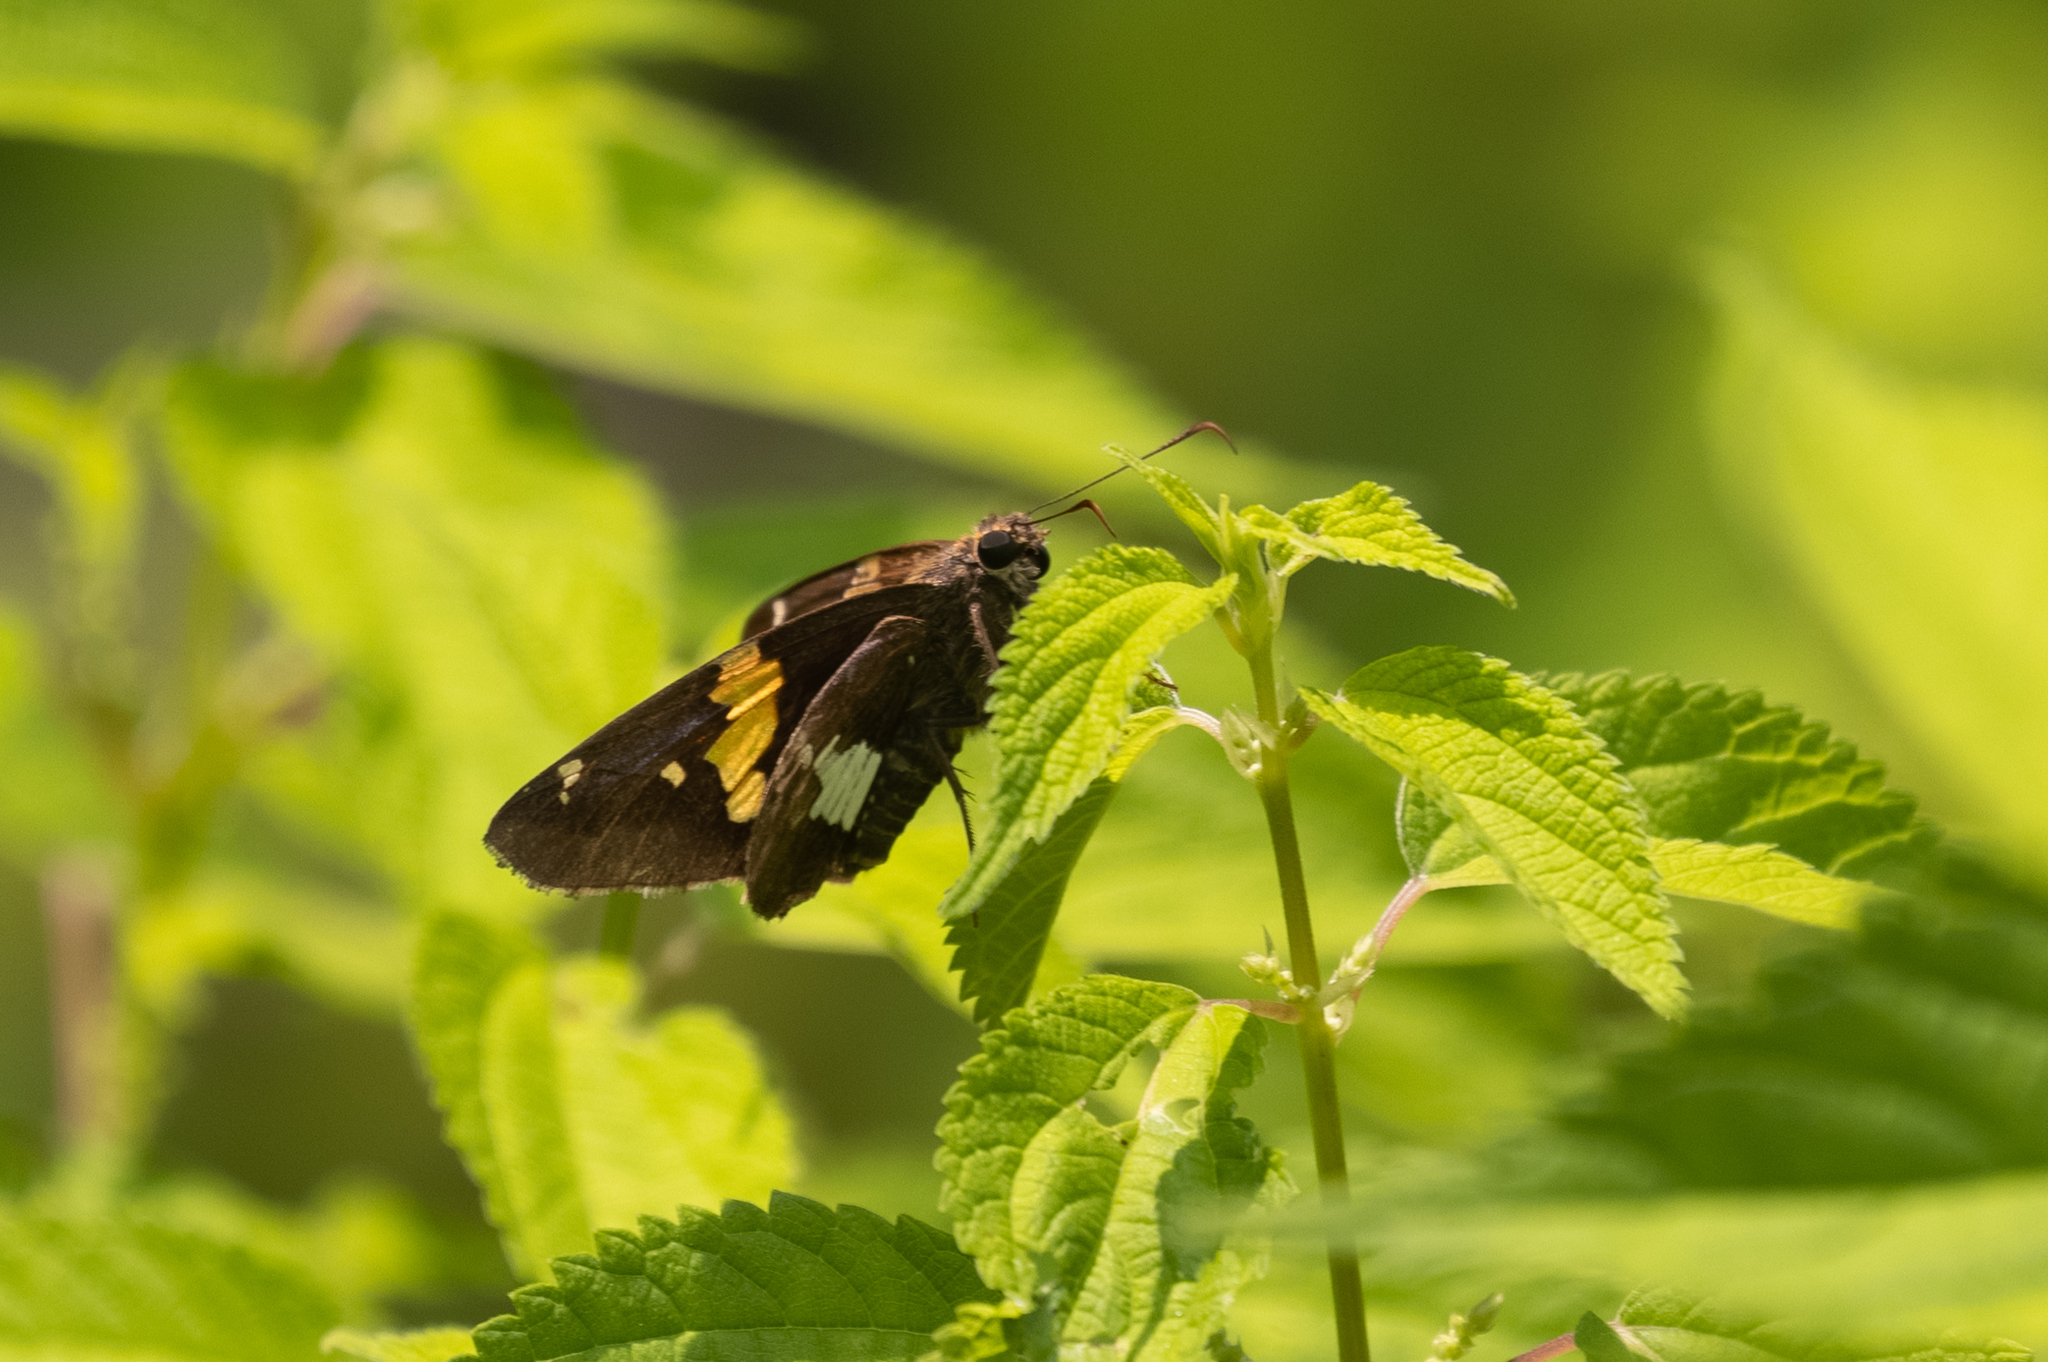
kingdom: Animalia
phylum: Arthropoda
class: Insecta
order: Lepidoptera
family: Hesperiidae
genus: Epargyreus
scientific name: Epargyreus clarus
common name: Silver-spotted skipper
